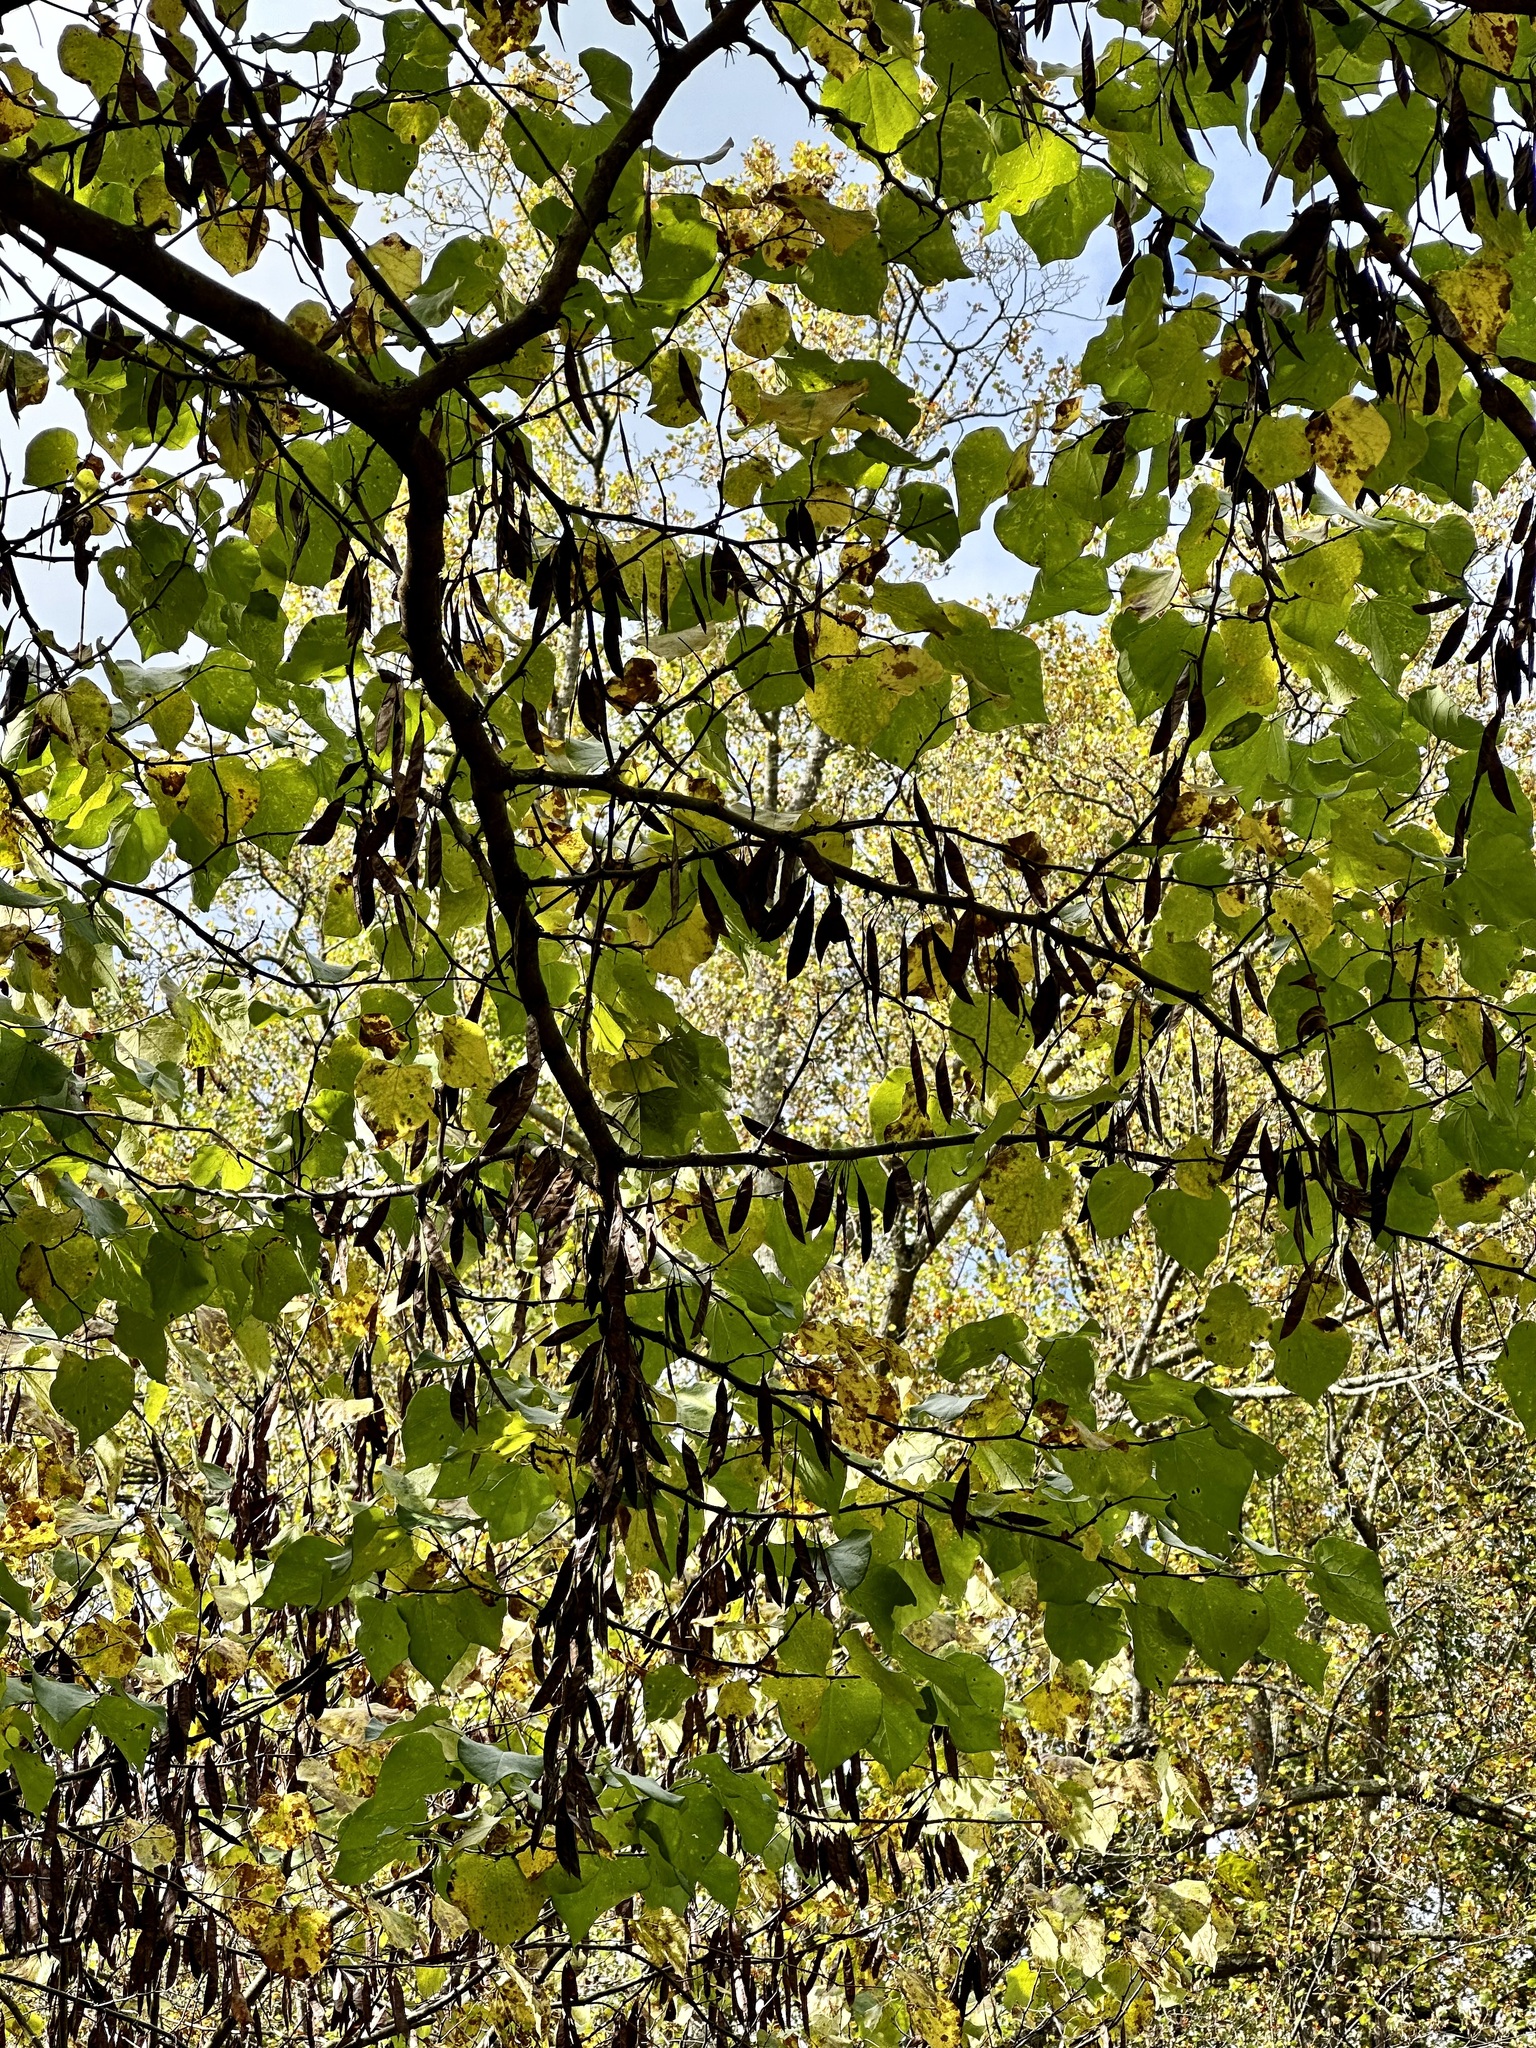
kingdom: Plantae
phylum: Tracheophyta
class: Magnoliopsida
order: Fabales
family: Fabaceae
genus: Cercis
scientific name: Cercis canadensis
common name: Eastern redbud
